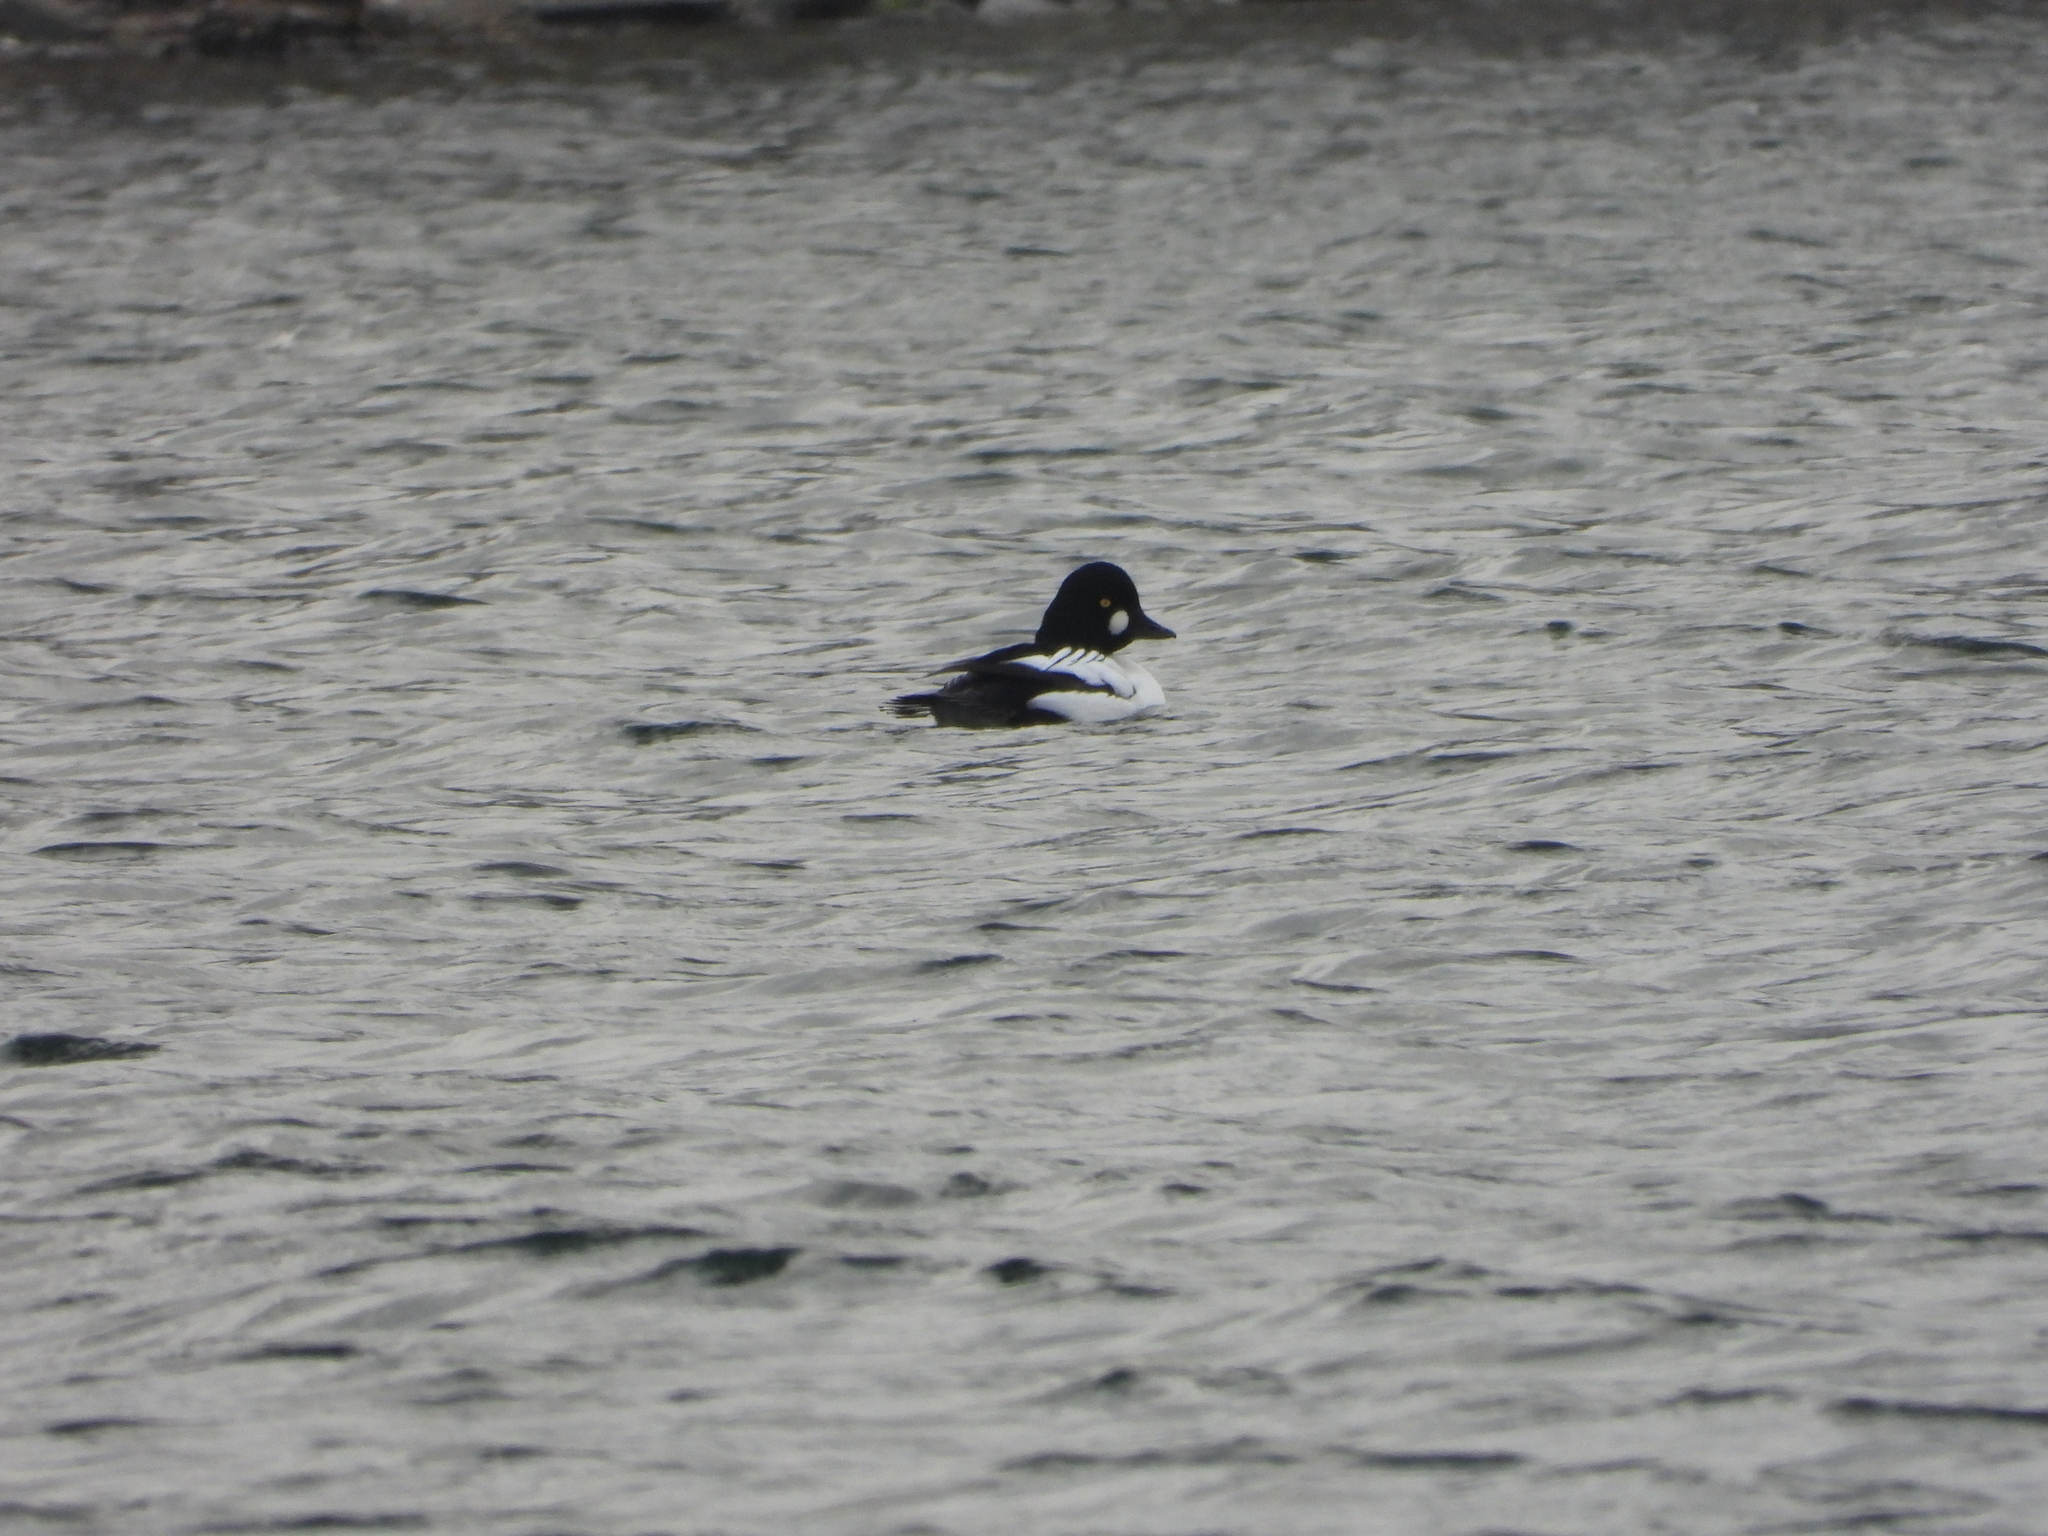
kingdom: Animalia
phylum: Chordata
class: Aves
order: Anseriformes
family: Anatidae
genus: Bucephala
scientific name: Bucephala clangula
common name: Common goldeneye
